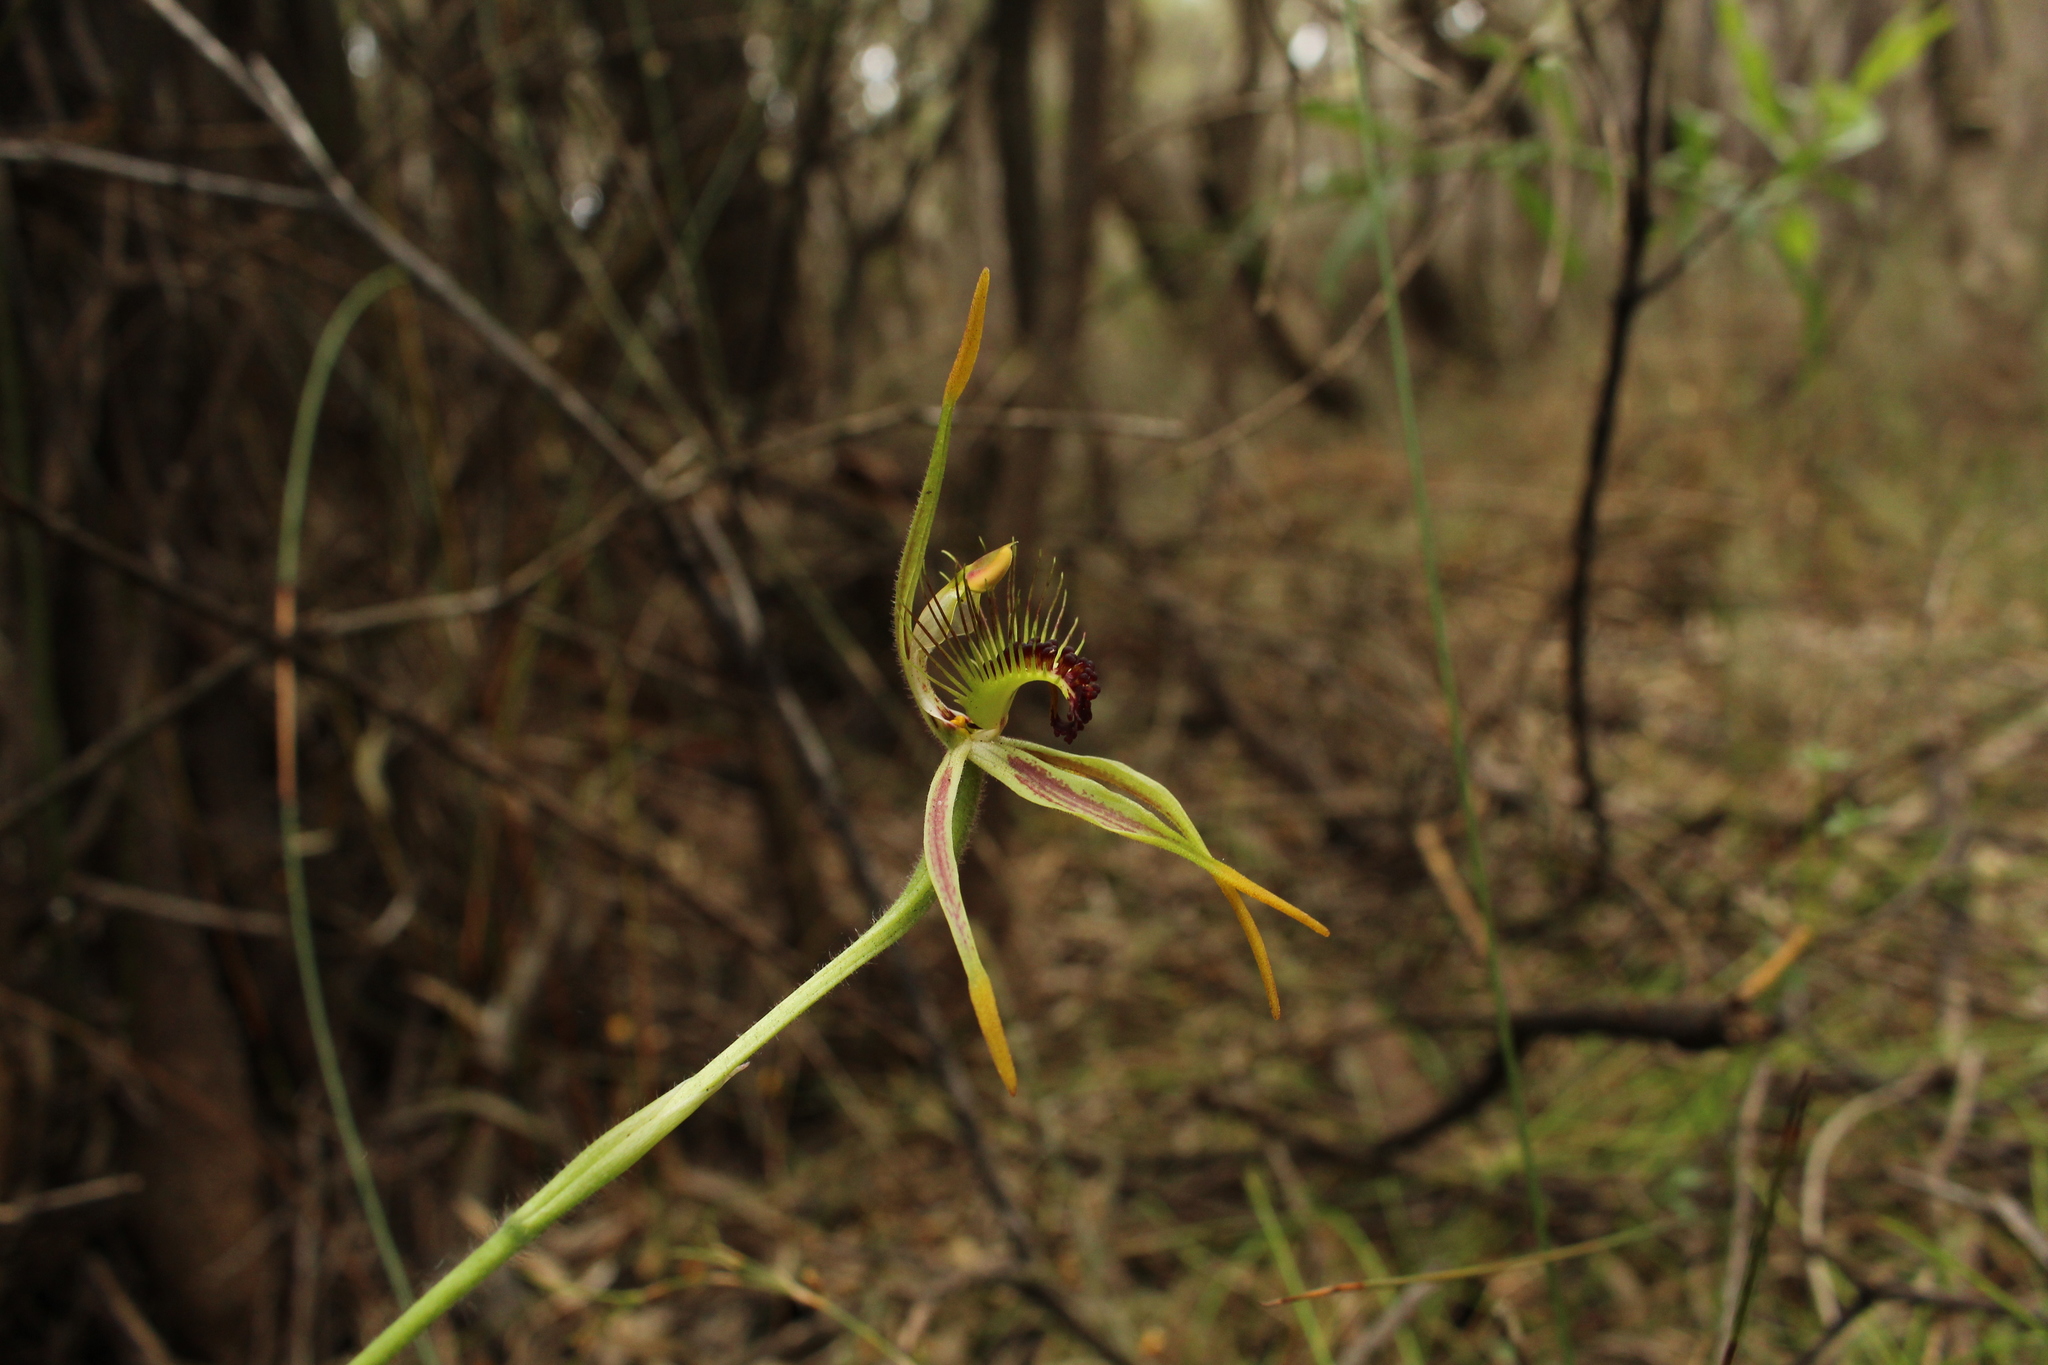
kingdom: Plantae
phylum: Tracheophyta
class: Liliopsida
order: Asparagales
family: Orchidaceae
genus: Caladenia
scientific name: Caladenia corynephora
